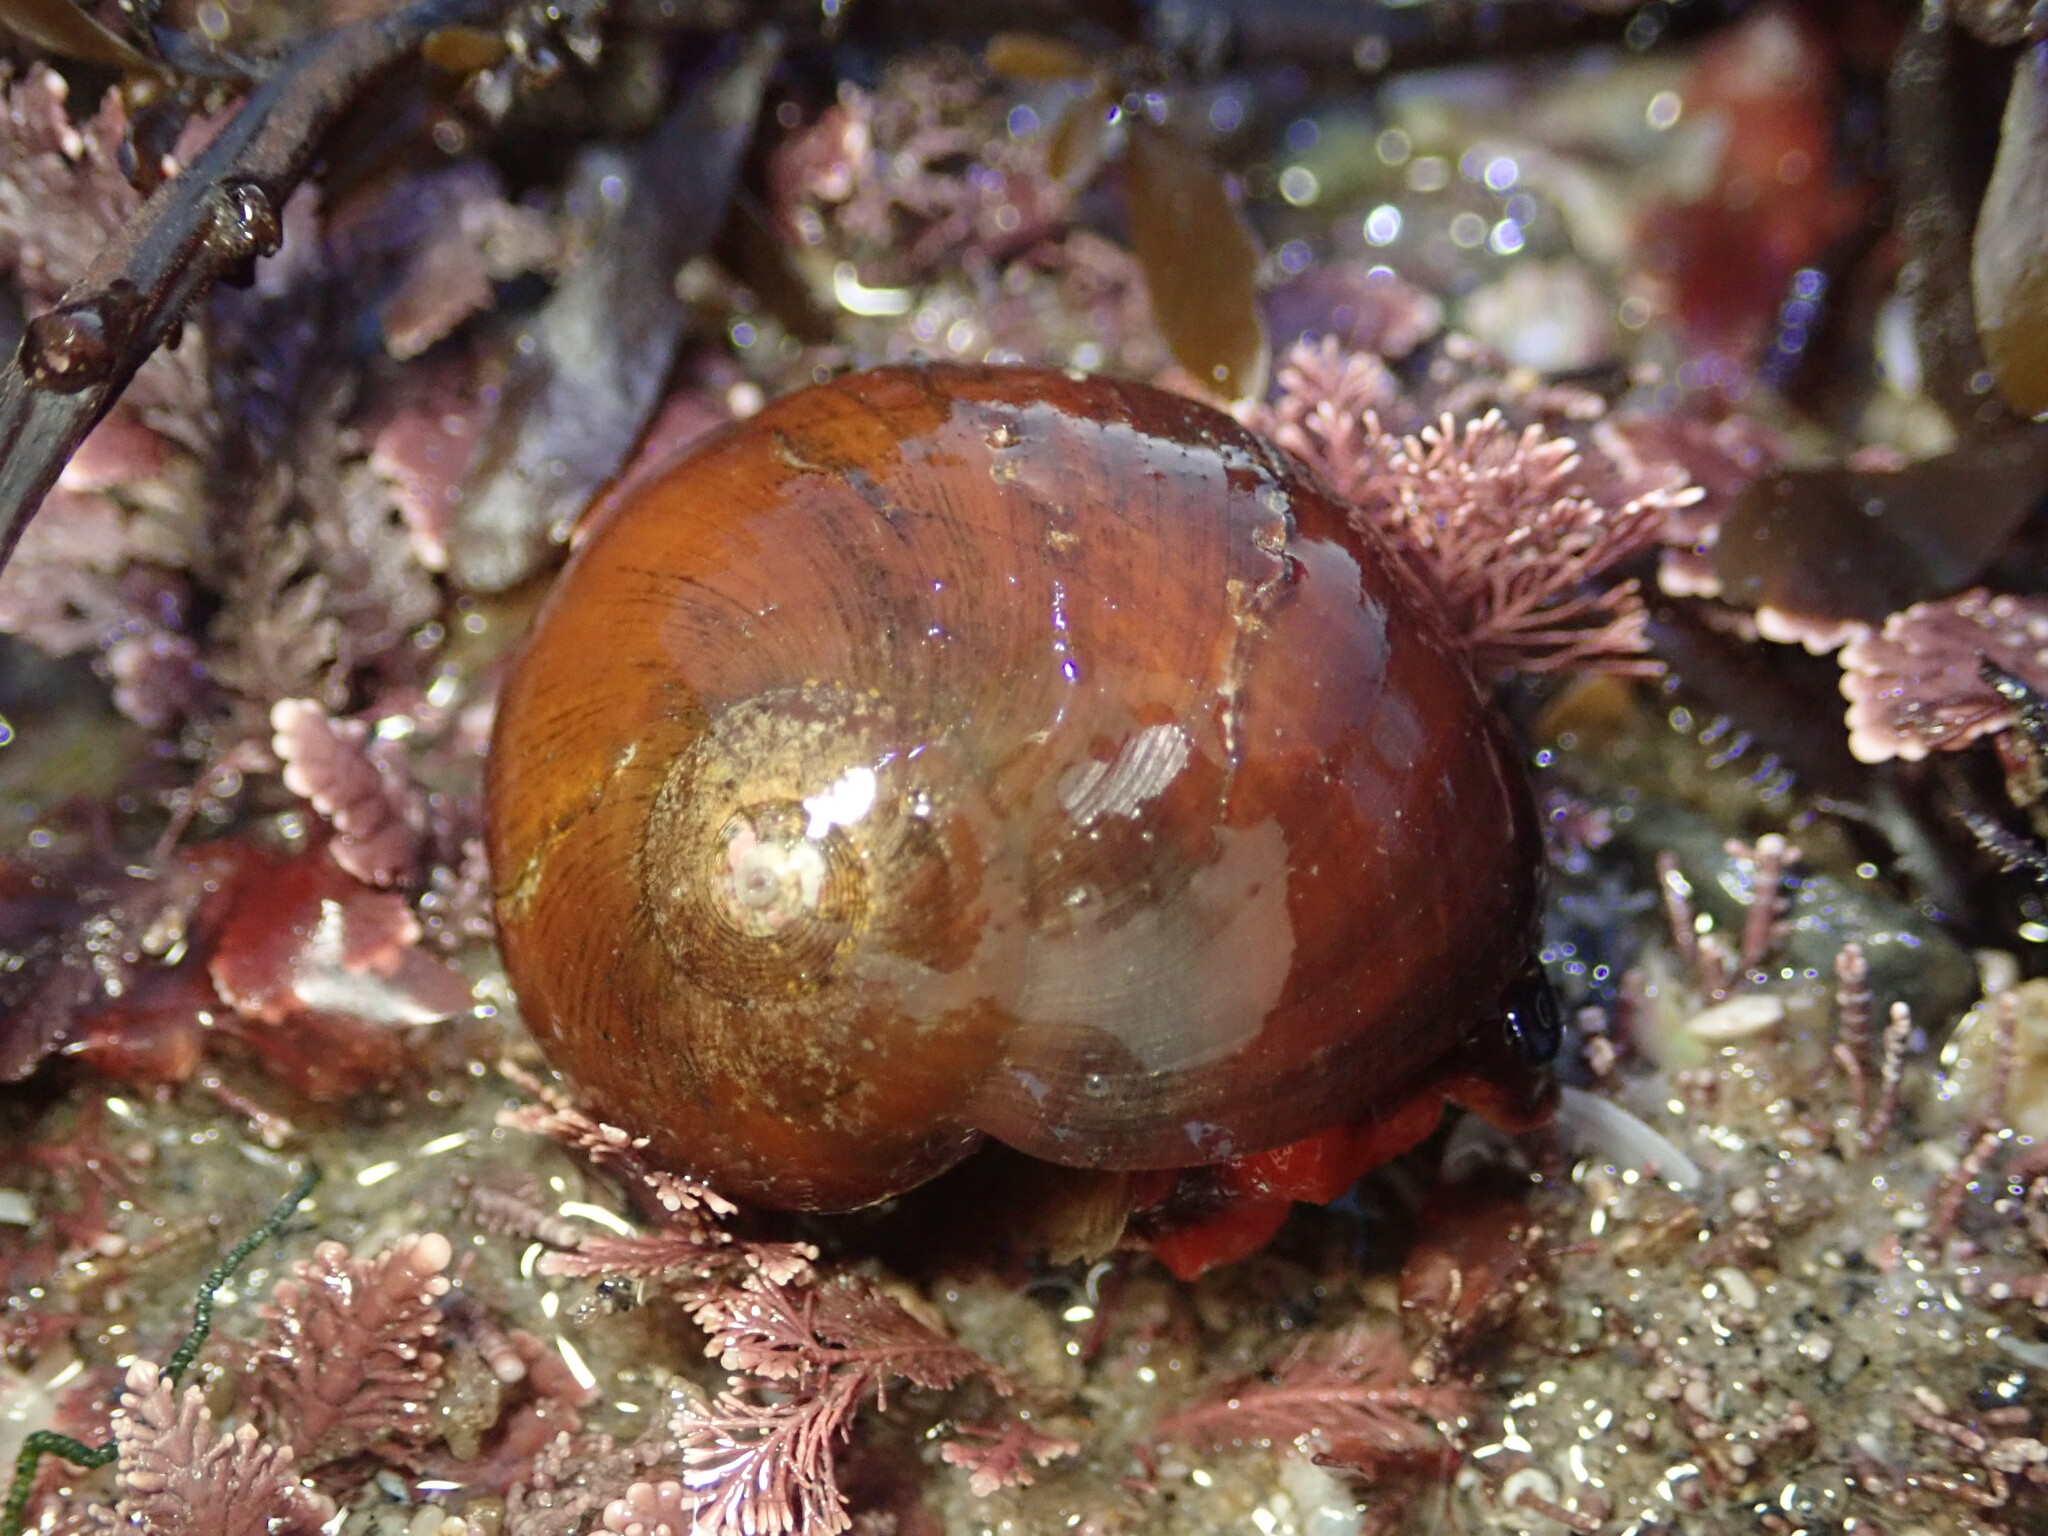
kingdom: Animalia
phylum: Mollusca
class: Gastropoda
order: Trochida
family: Tegulidae
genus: Norrisia
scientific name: Norrisia norrisii
